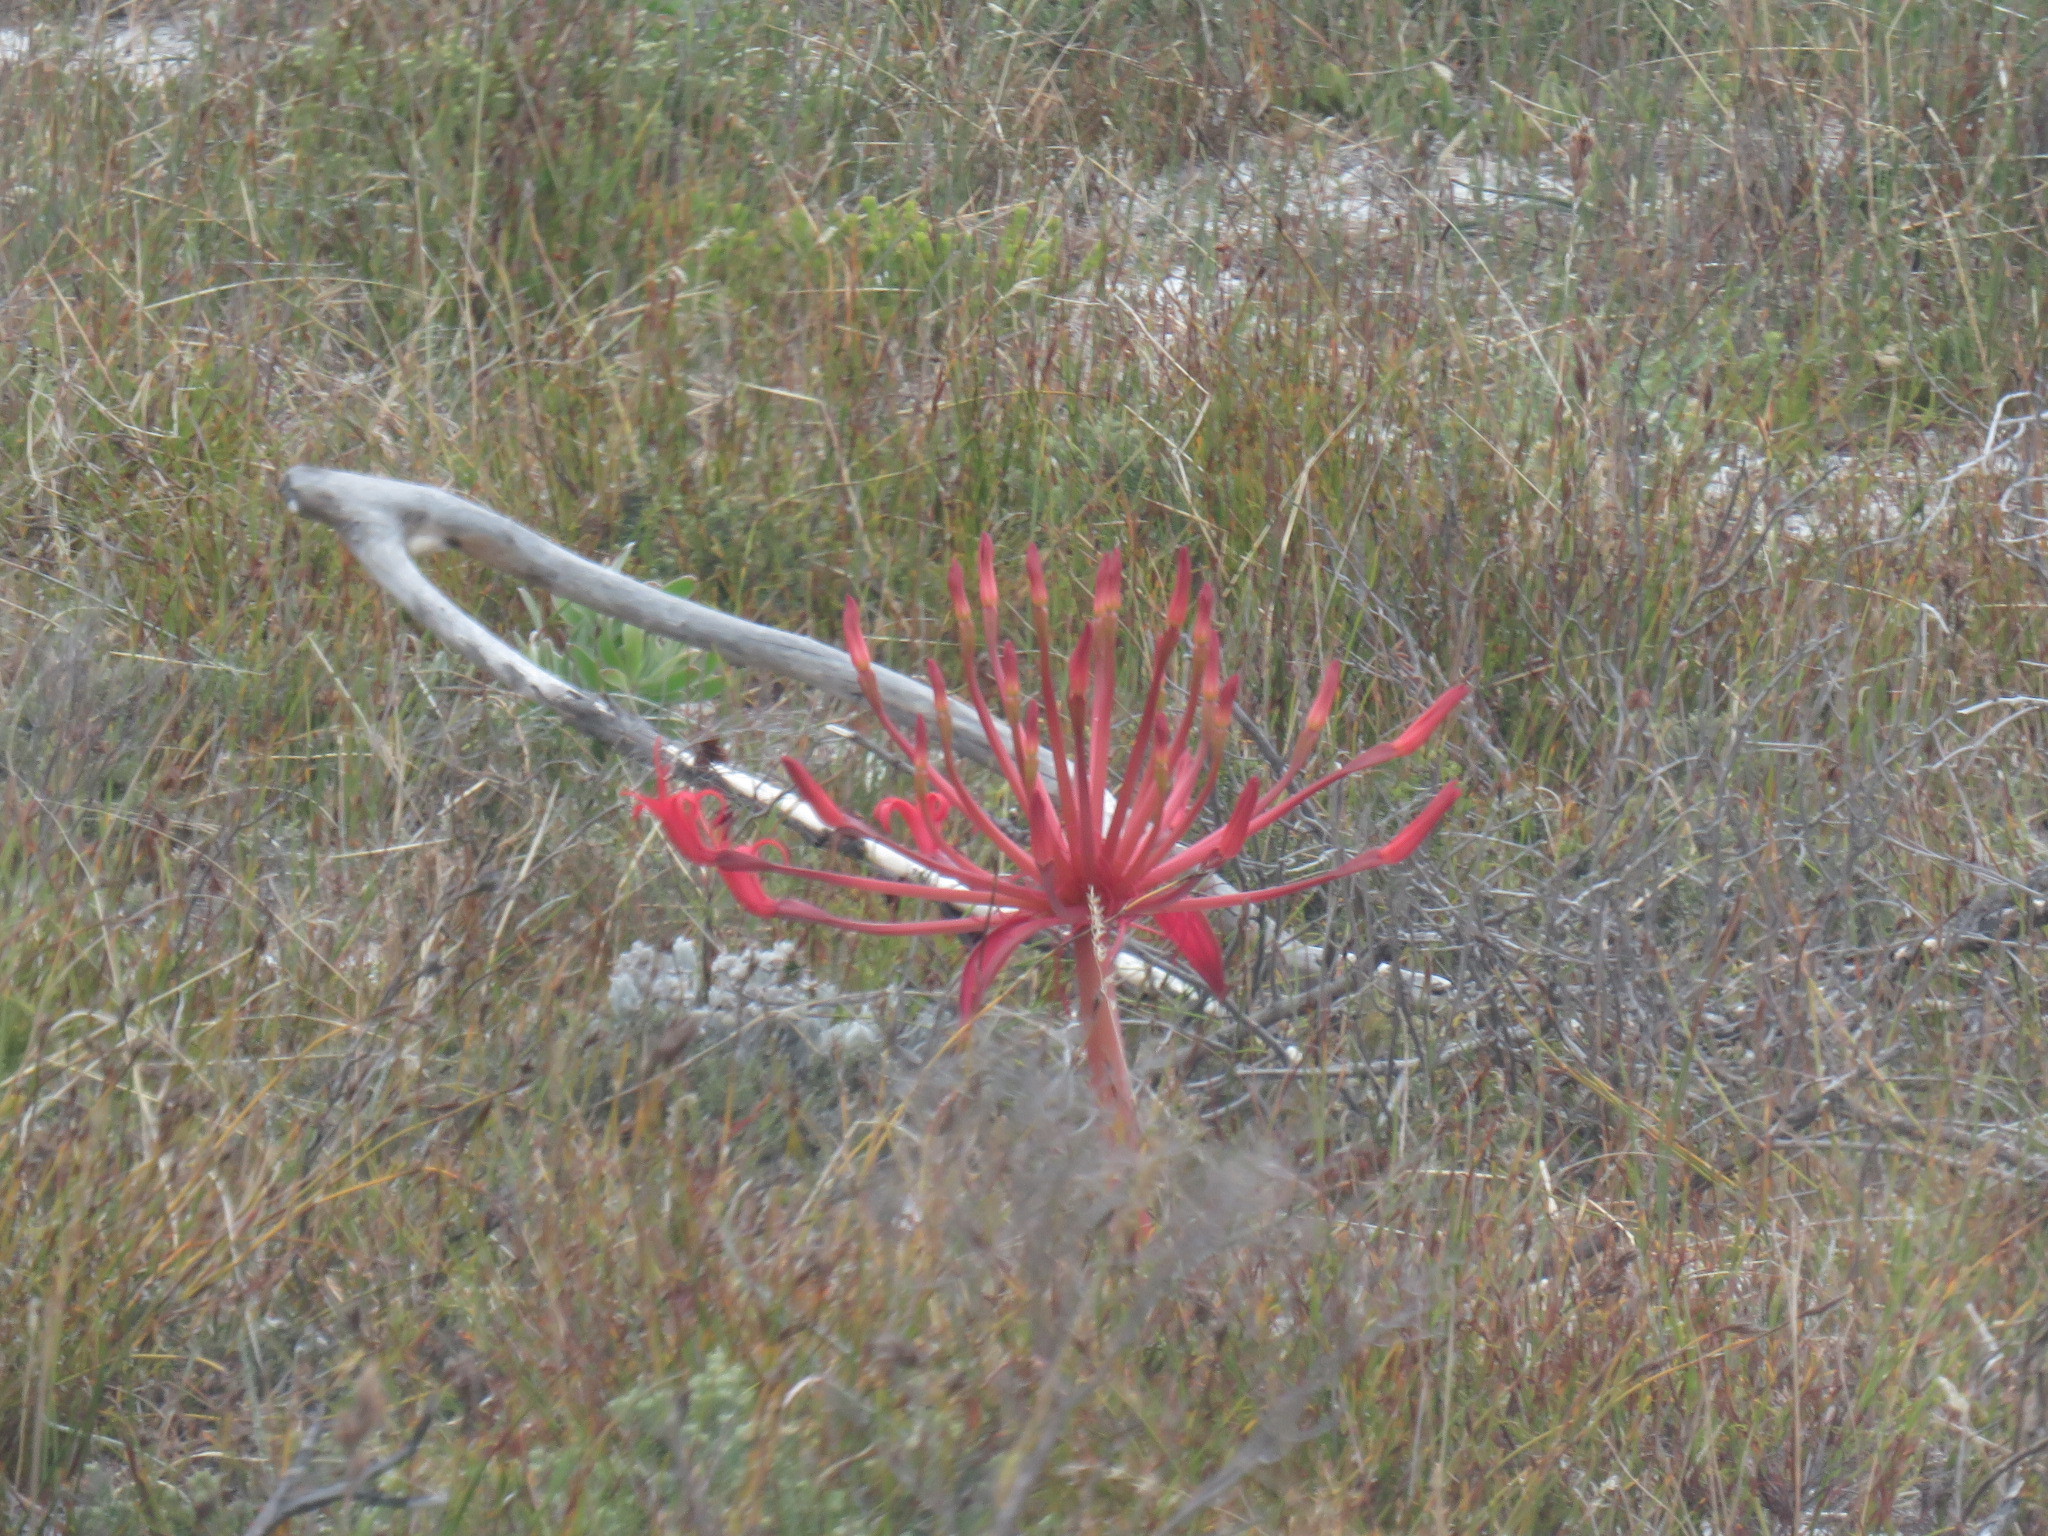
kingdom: Plantae
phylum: Tracheophyta
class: Liliopsida
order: Asparagales
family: Amaryllidaceae
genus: Brunsvigia
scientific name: Brunsvigia orientalis
